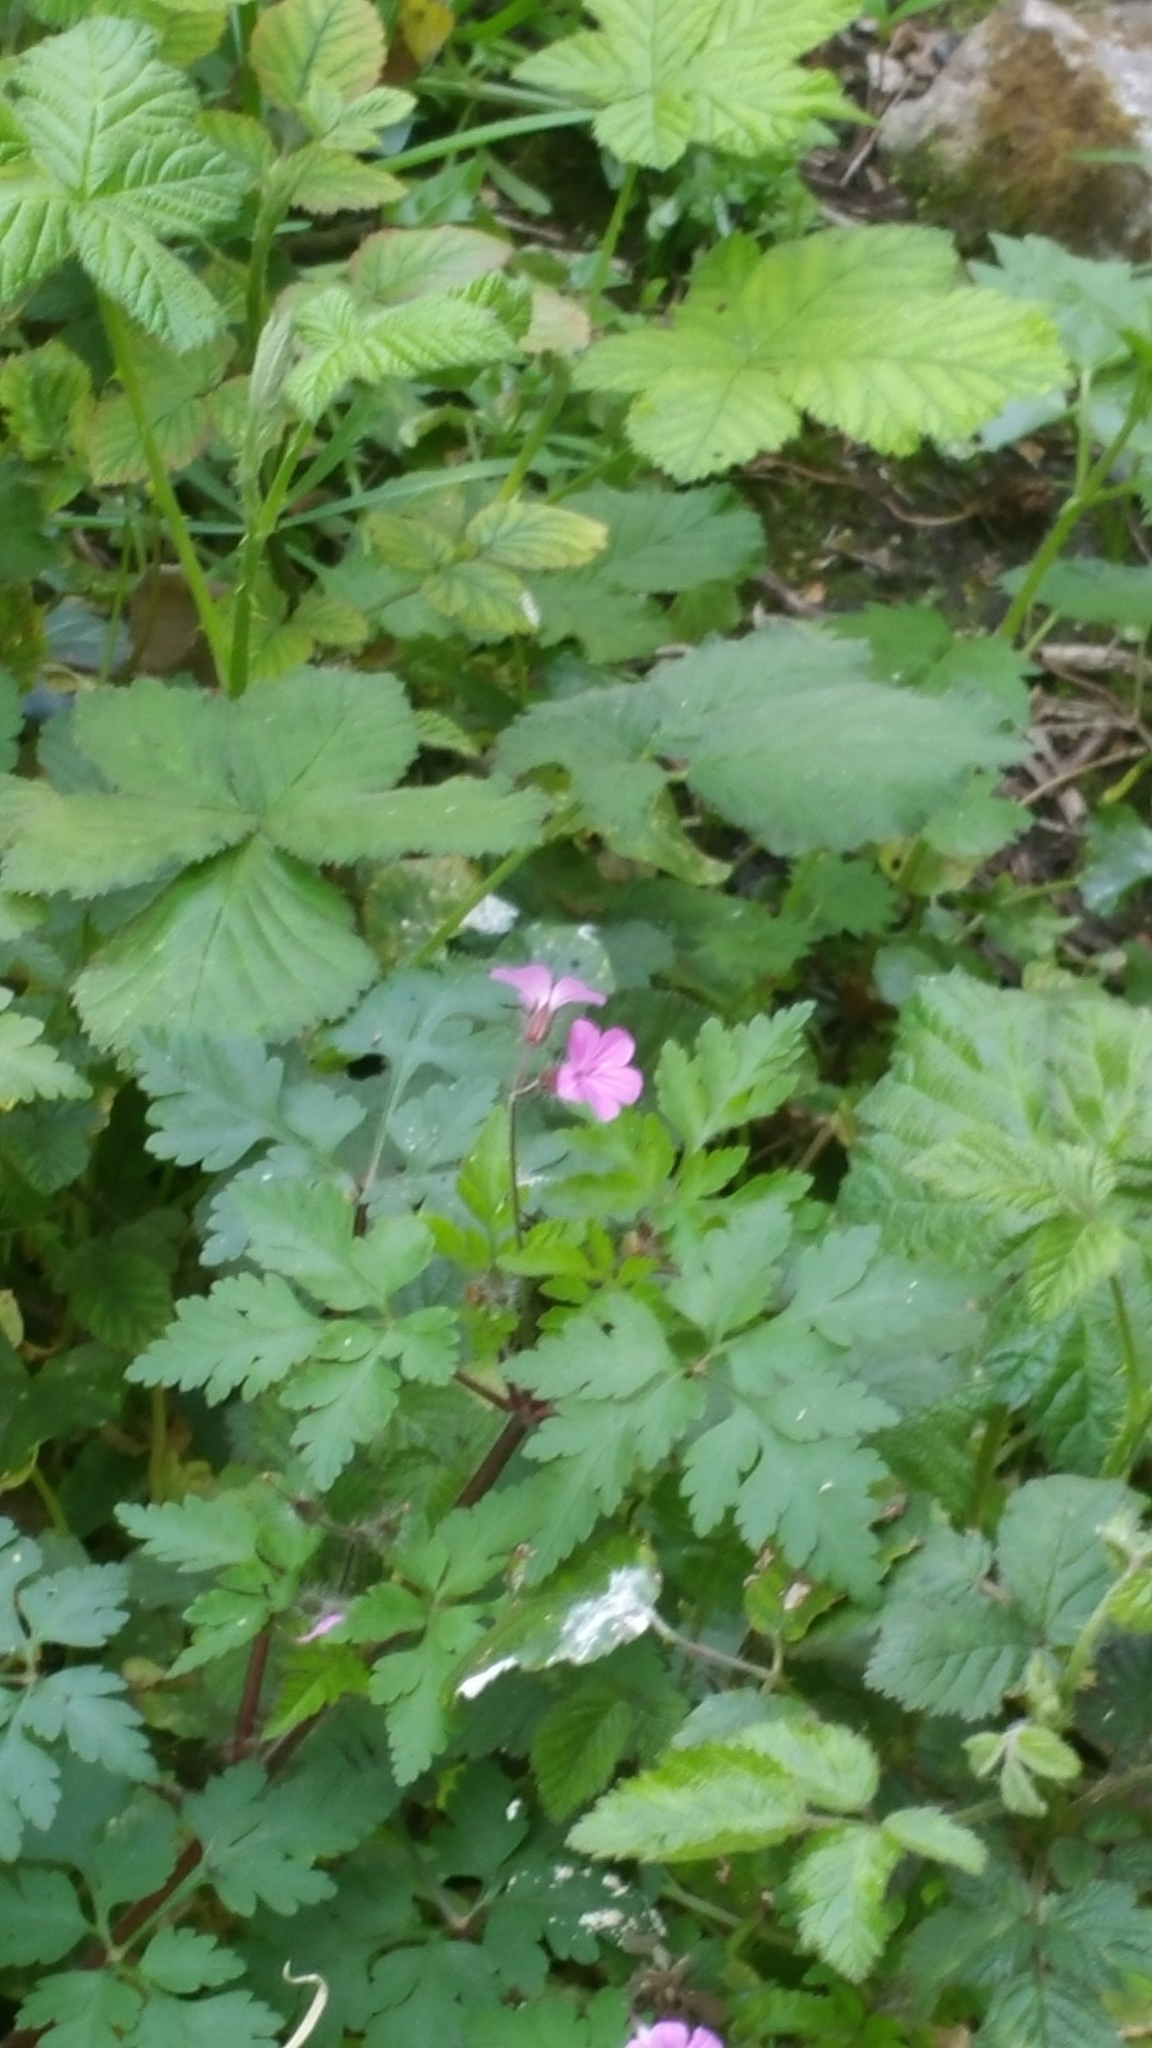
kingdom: Plantae
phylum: Tracheophyta
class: Magnoliopsida
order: Geraniales
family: Geraniaceae
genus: Geranium
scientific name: Geranium robertianum
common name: Herb-robert
